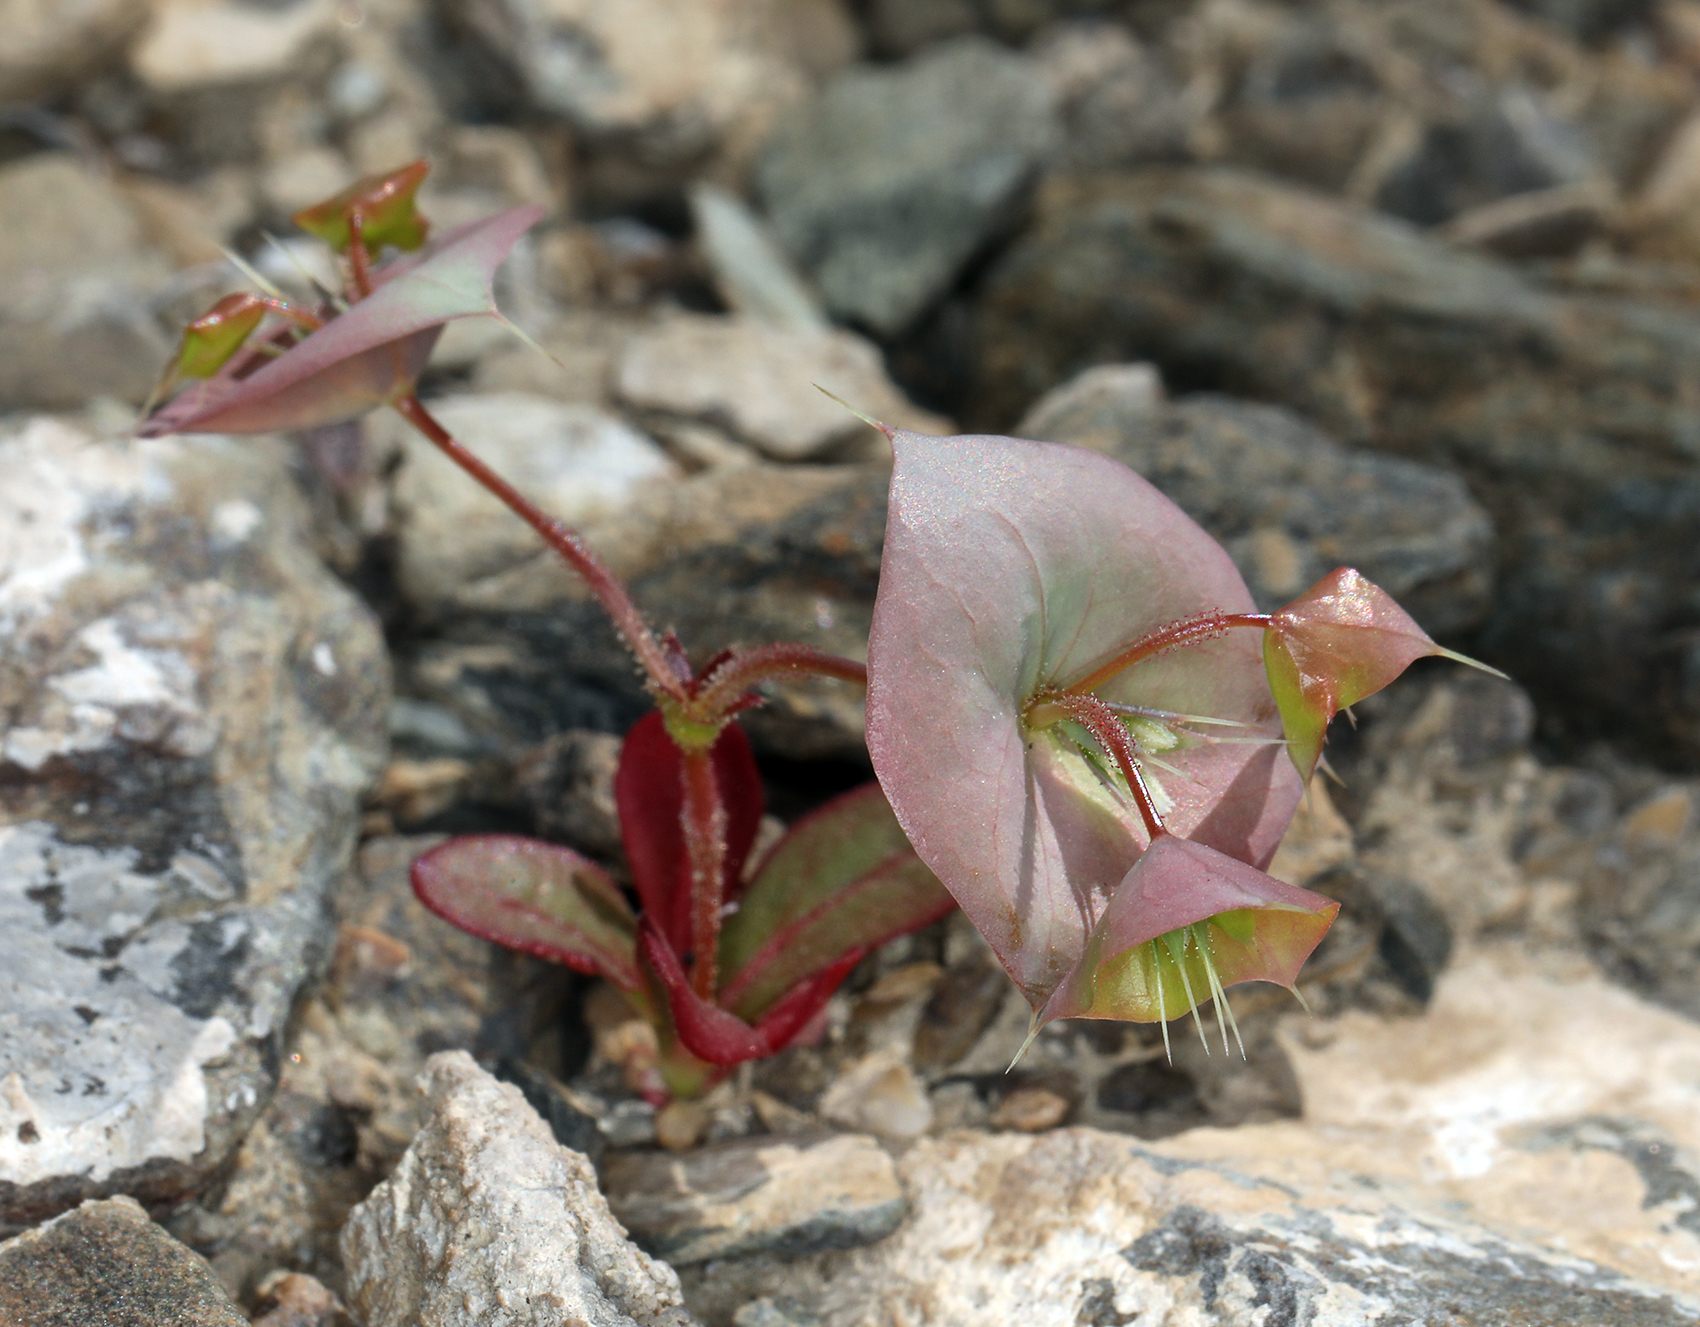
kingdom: Plantae
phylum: Tracheophyta
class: Magnoliopsida
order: Caryophyllales
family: Polygonaceae
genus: Oxytheca
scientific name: Oxytheca perfoliata
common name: Round-leaf puncturebract
